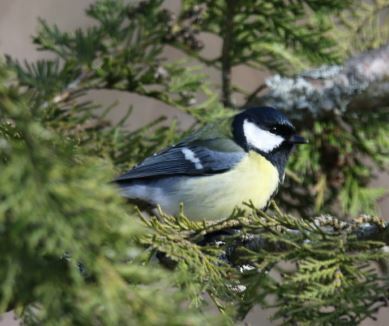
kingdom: Animalia
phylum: Chordata
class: Aves
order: Passeriformes
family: Paridae
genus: Parus
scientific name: Parus major
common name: Great tit
